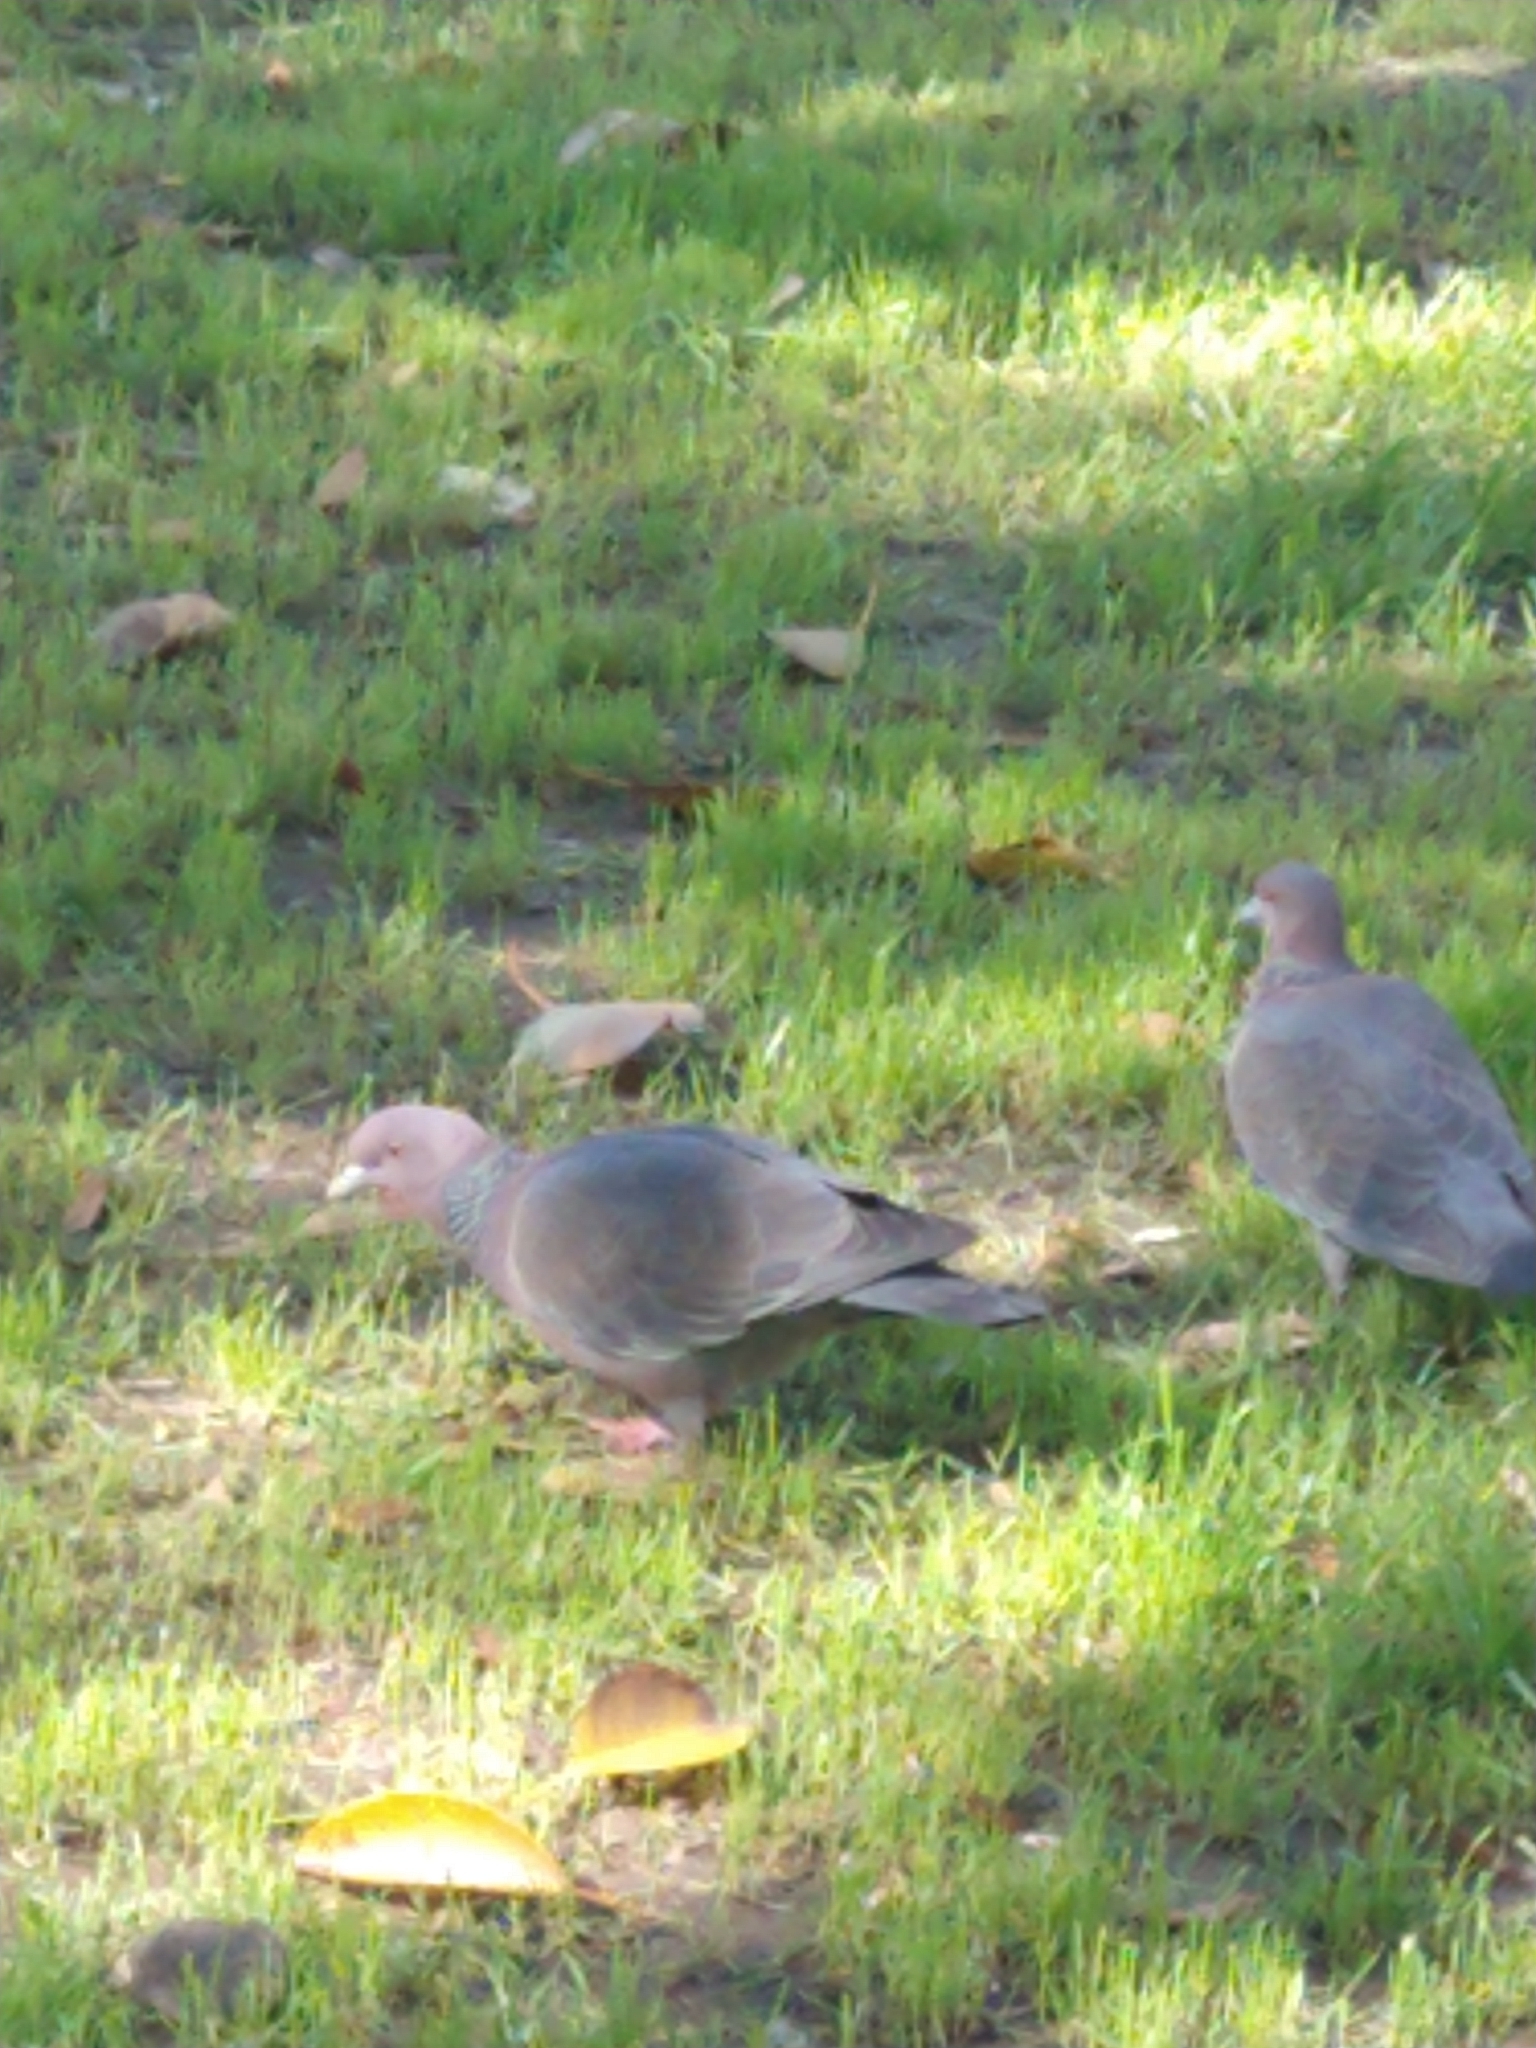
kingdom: Animalia
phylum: Chordata
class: Aves
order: Columbiformes
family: Columbidae
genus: Patagioenas
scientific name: Patagioenas picazuro
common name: Picazuro pigeon
